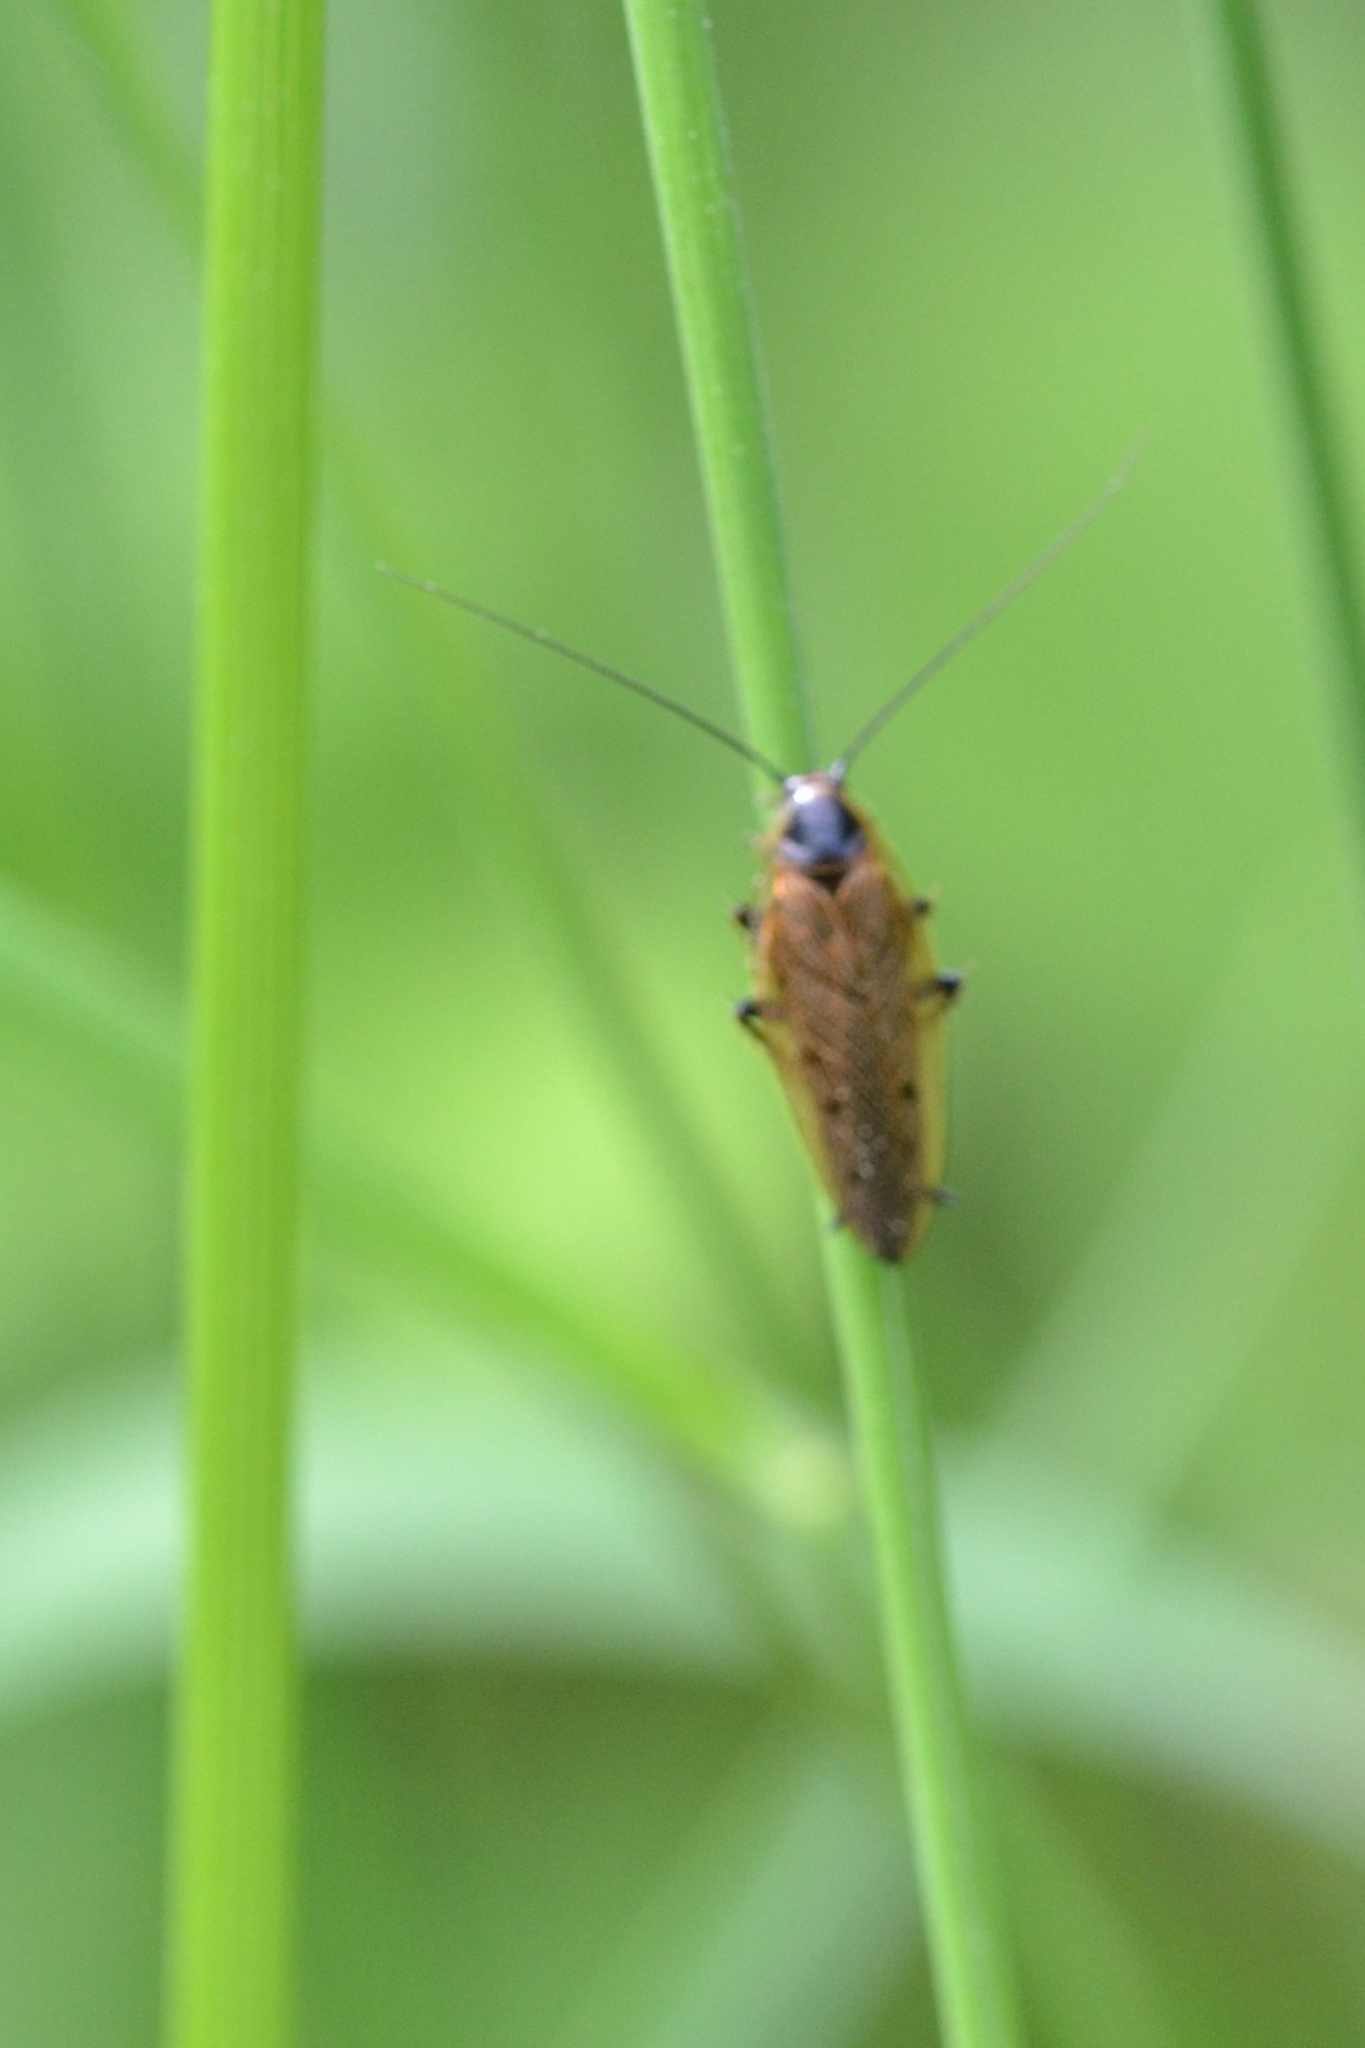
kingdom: Animalia
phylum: Arthropoda
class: Insecta
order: Blattodea
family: Ectobiidae
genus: Ectobius
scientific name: Ectobius lapponicus
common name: Dusky cockroach
